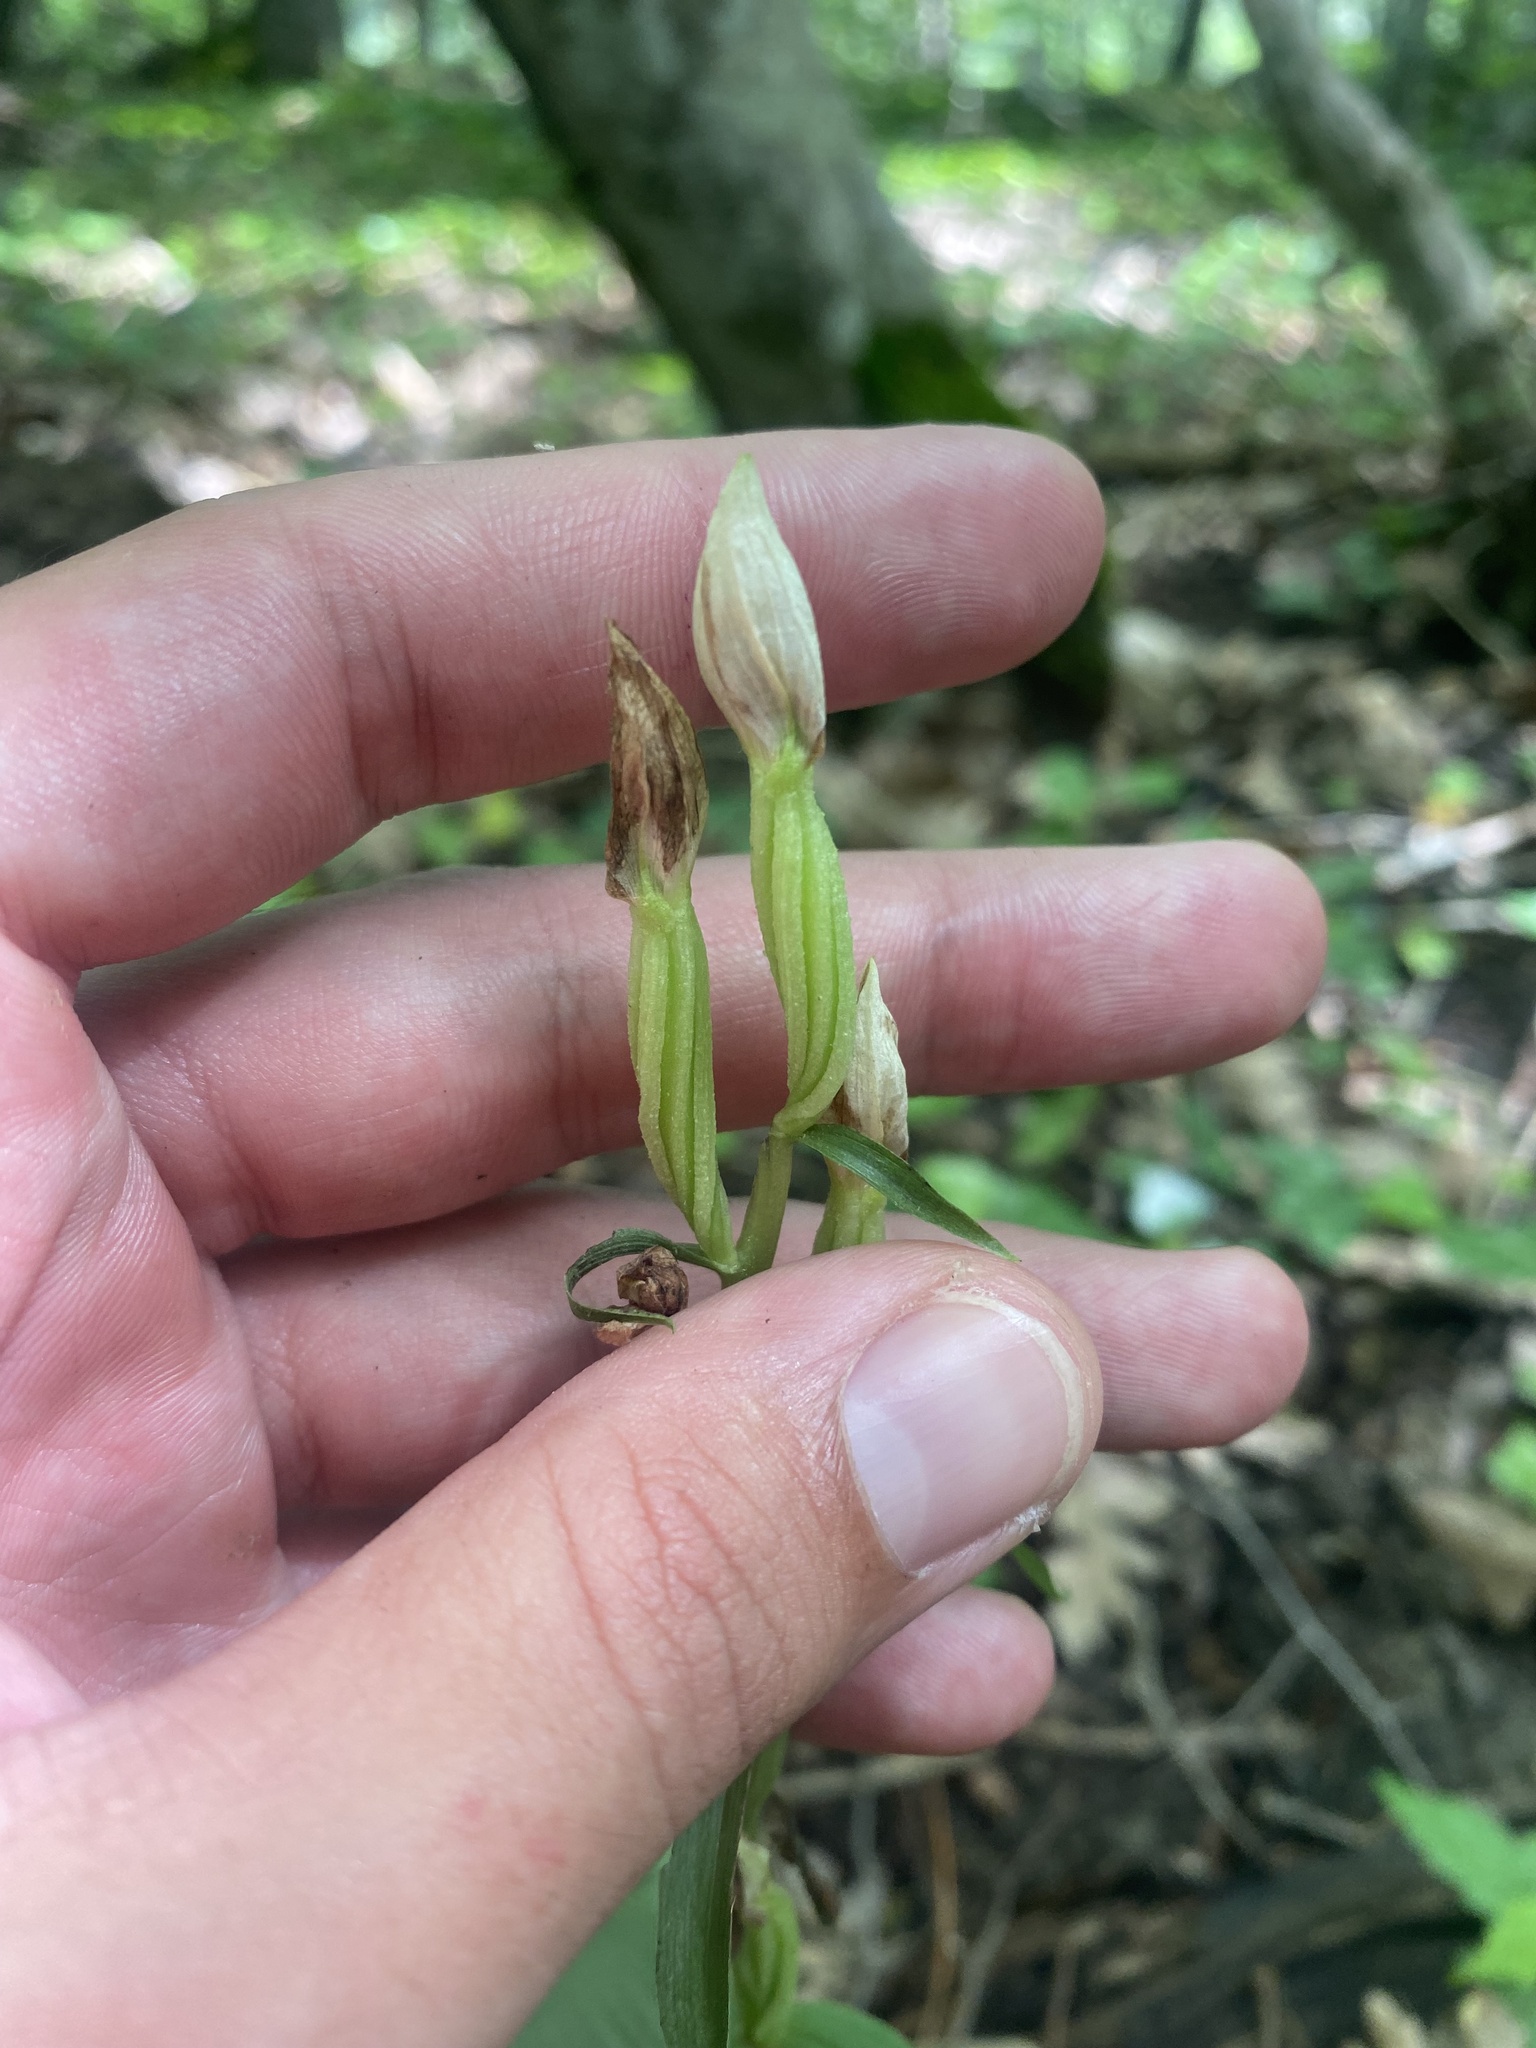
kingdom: Plantae
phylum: Tracheophyta
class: Liliopsida
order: Asparagales
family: Orchidaceae
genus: Cephalanthera
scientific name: Cephalanthera damasonium
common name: White helleborine
